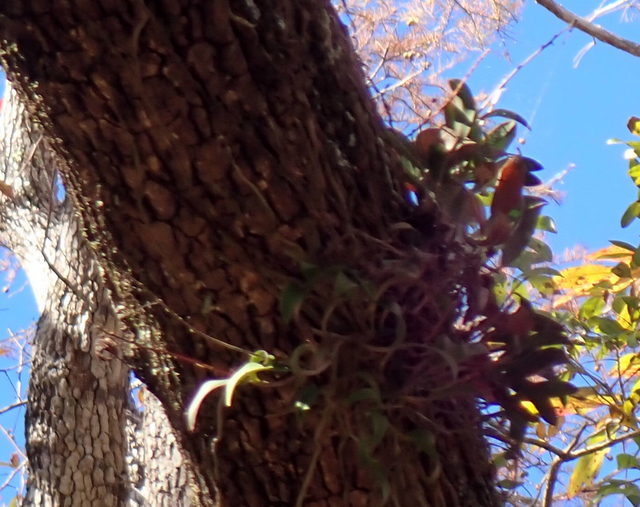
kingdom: Plantae
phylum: Tracheophyta
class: Liliopsida
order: Asparagales
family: Orchidaceae
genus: Epidendrum
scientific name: Epidendrum conopseum
